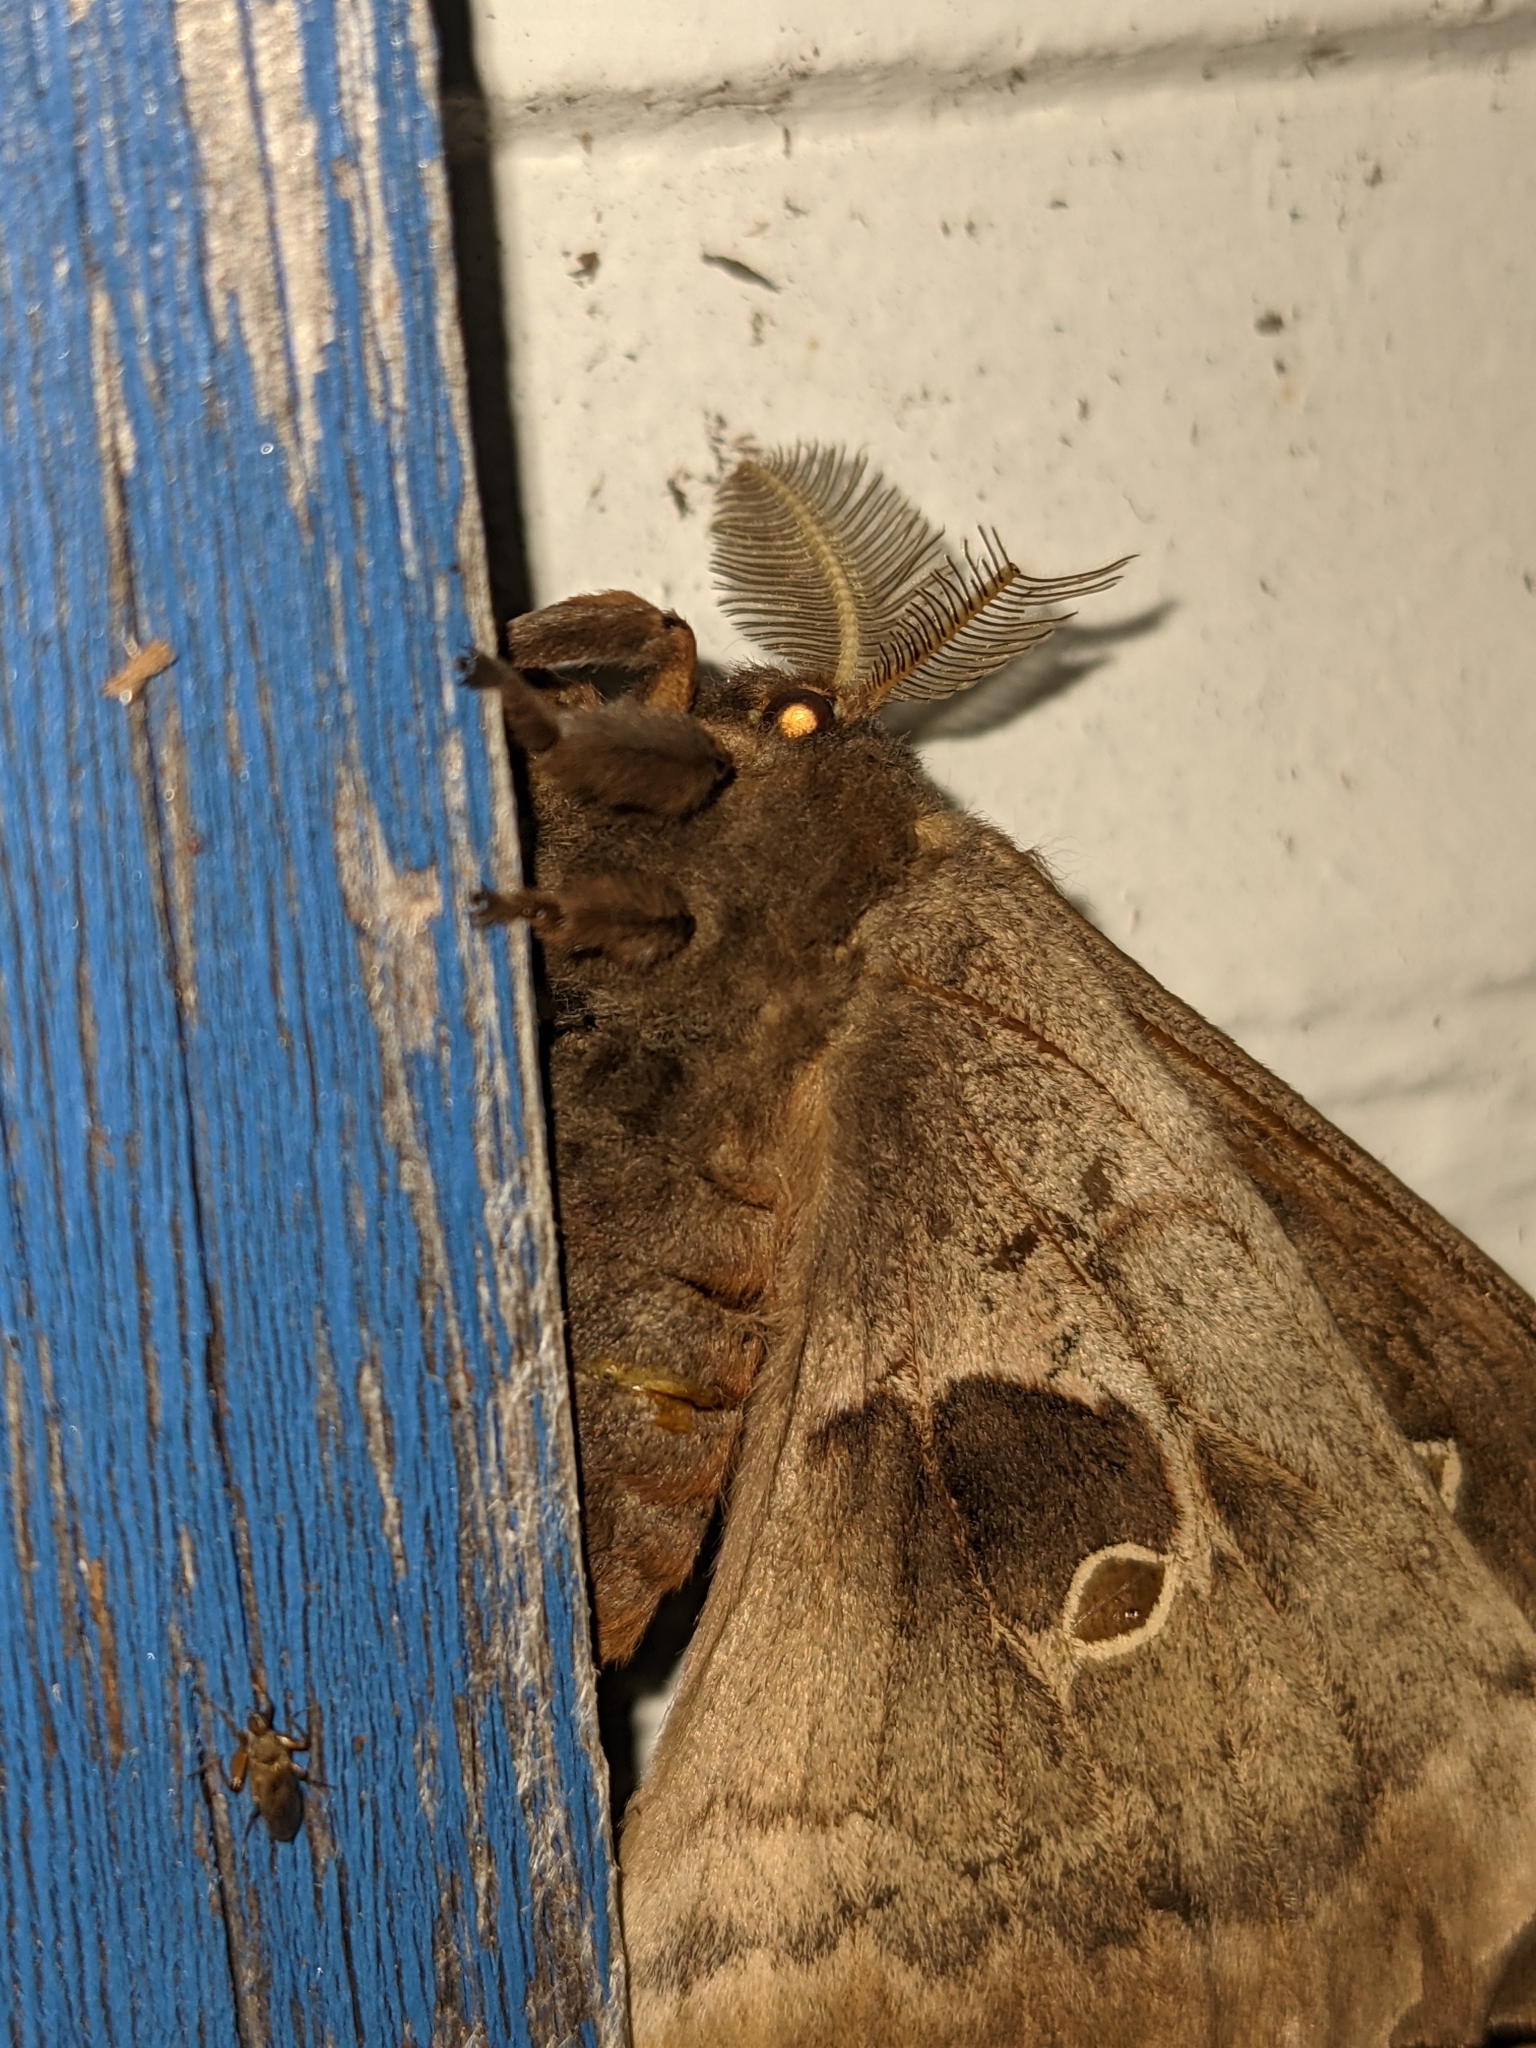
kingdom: Animalia
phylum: Arthropoda
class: Insecta
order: Lepidoptera
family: Saturniidae
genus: Antheraea
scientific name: Antheraea polyphemus
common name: Polyphemus moth
